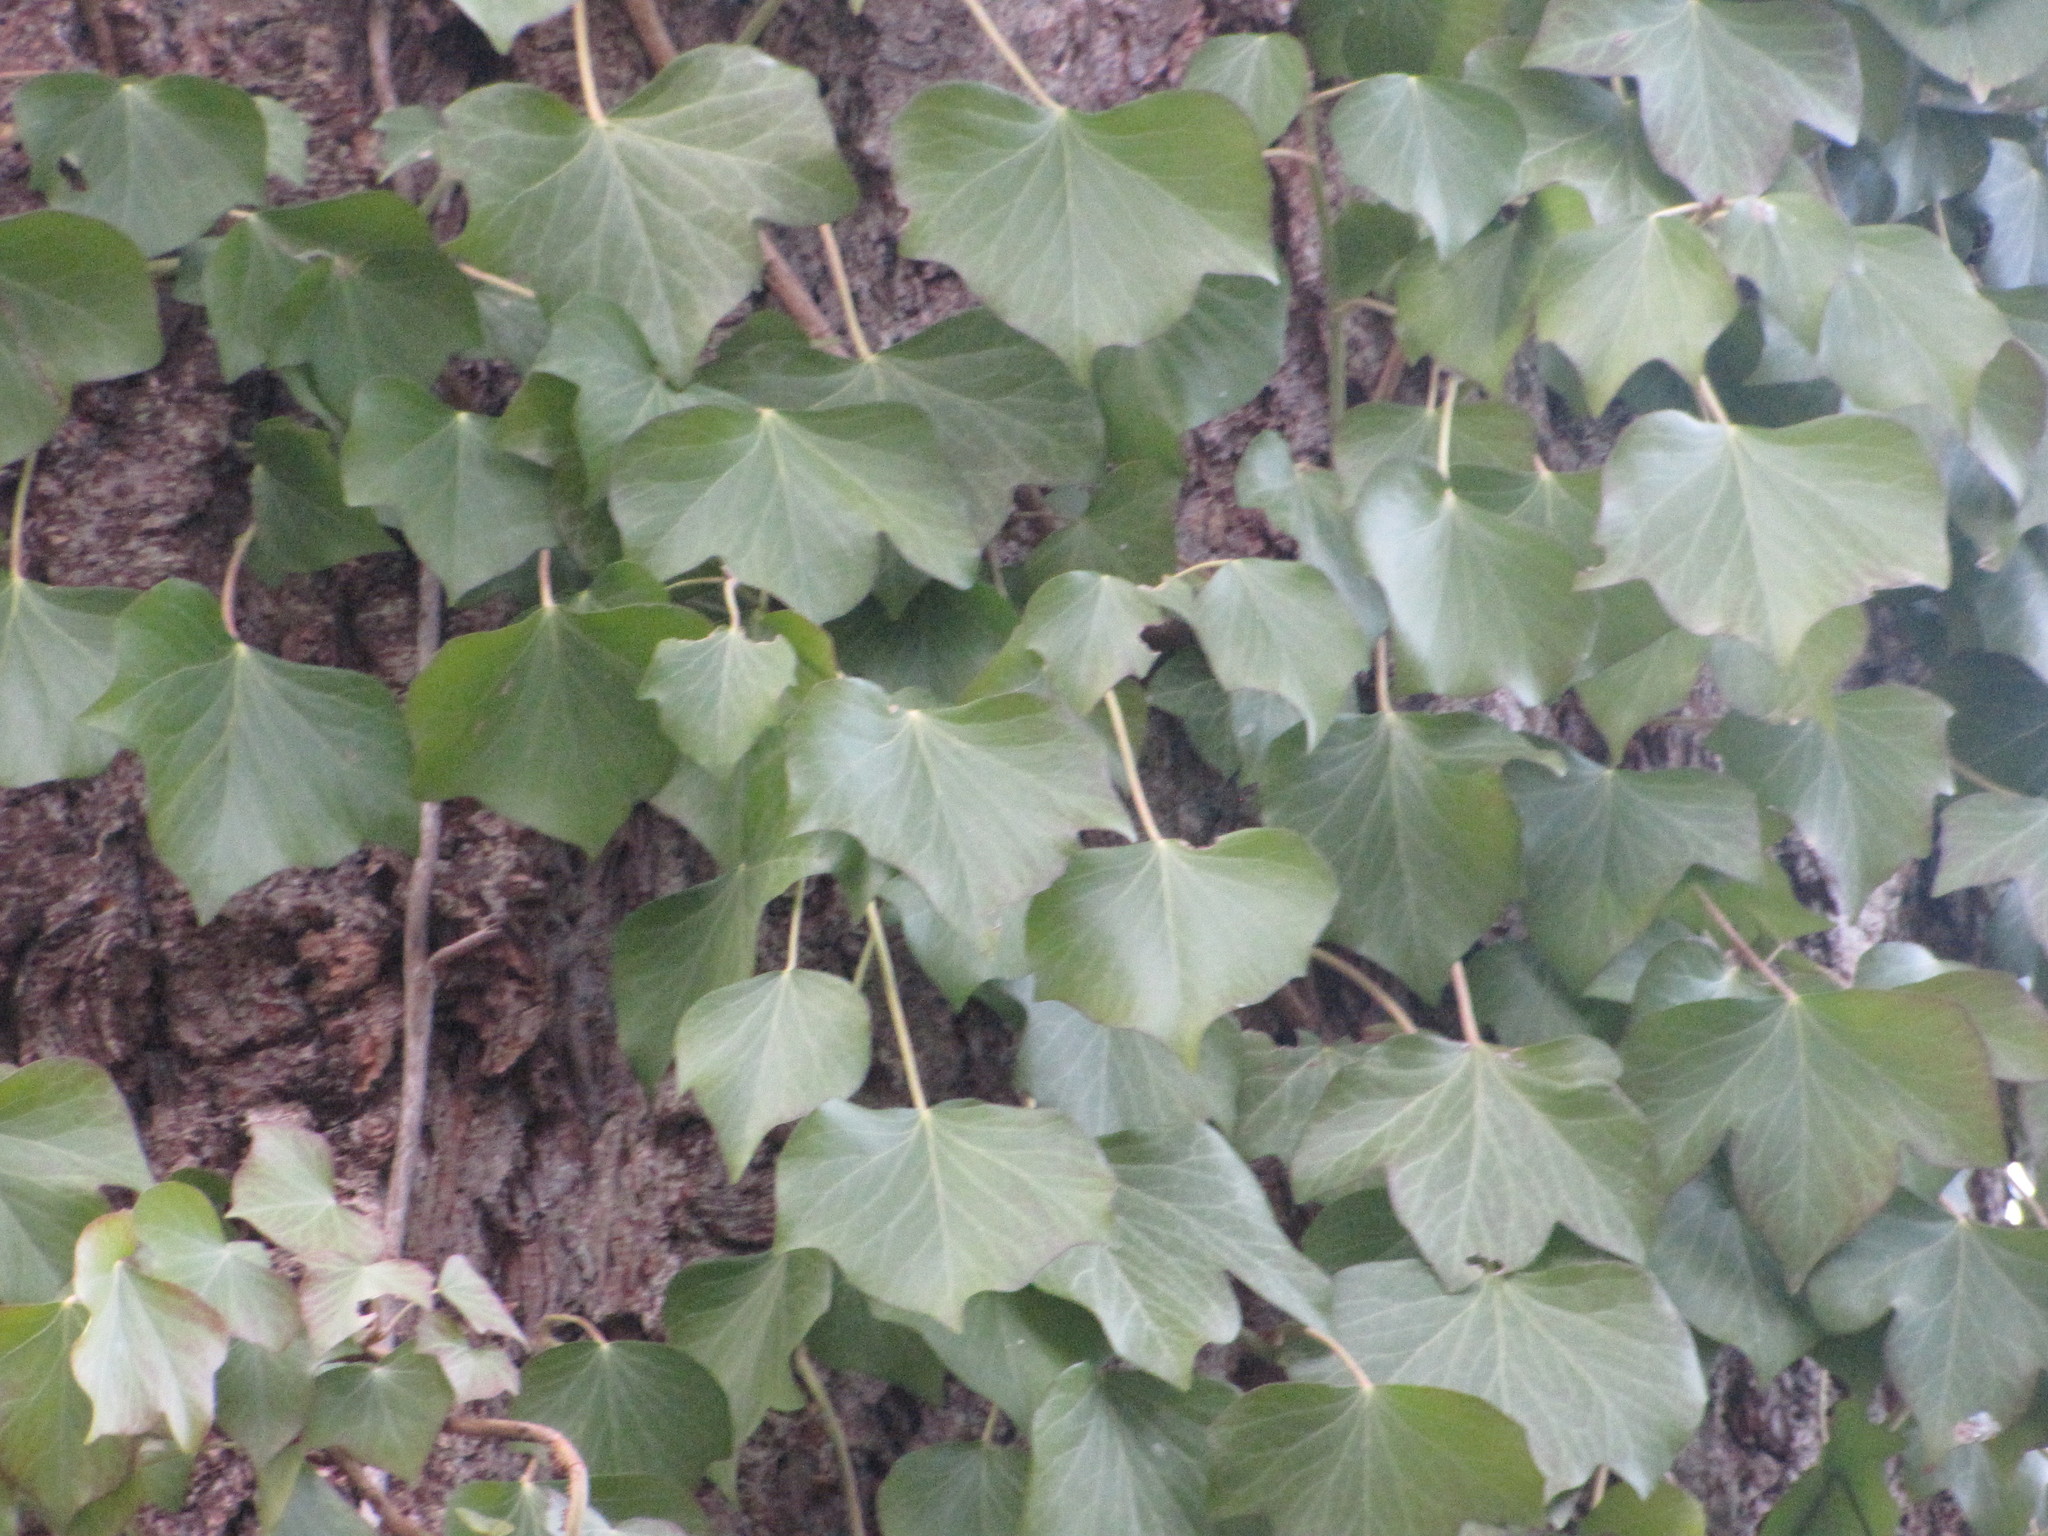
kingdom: Plantae
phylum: Tracheophyta
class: Magnoliopsida
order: Apiales
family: Araliaceae
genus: Hedera
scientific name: Hedera helix
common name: Ivy
